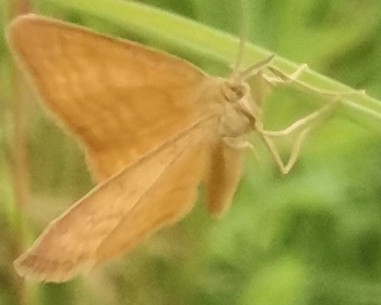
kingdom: Animalia
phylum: Arthropoda
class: Insecta
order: Lepidoptera
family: Geometridae
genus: Idaea
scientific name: Idaea serpentata
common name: Ochraceous wave
